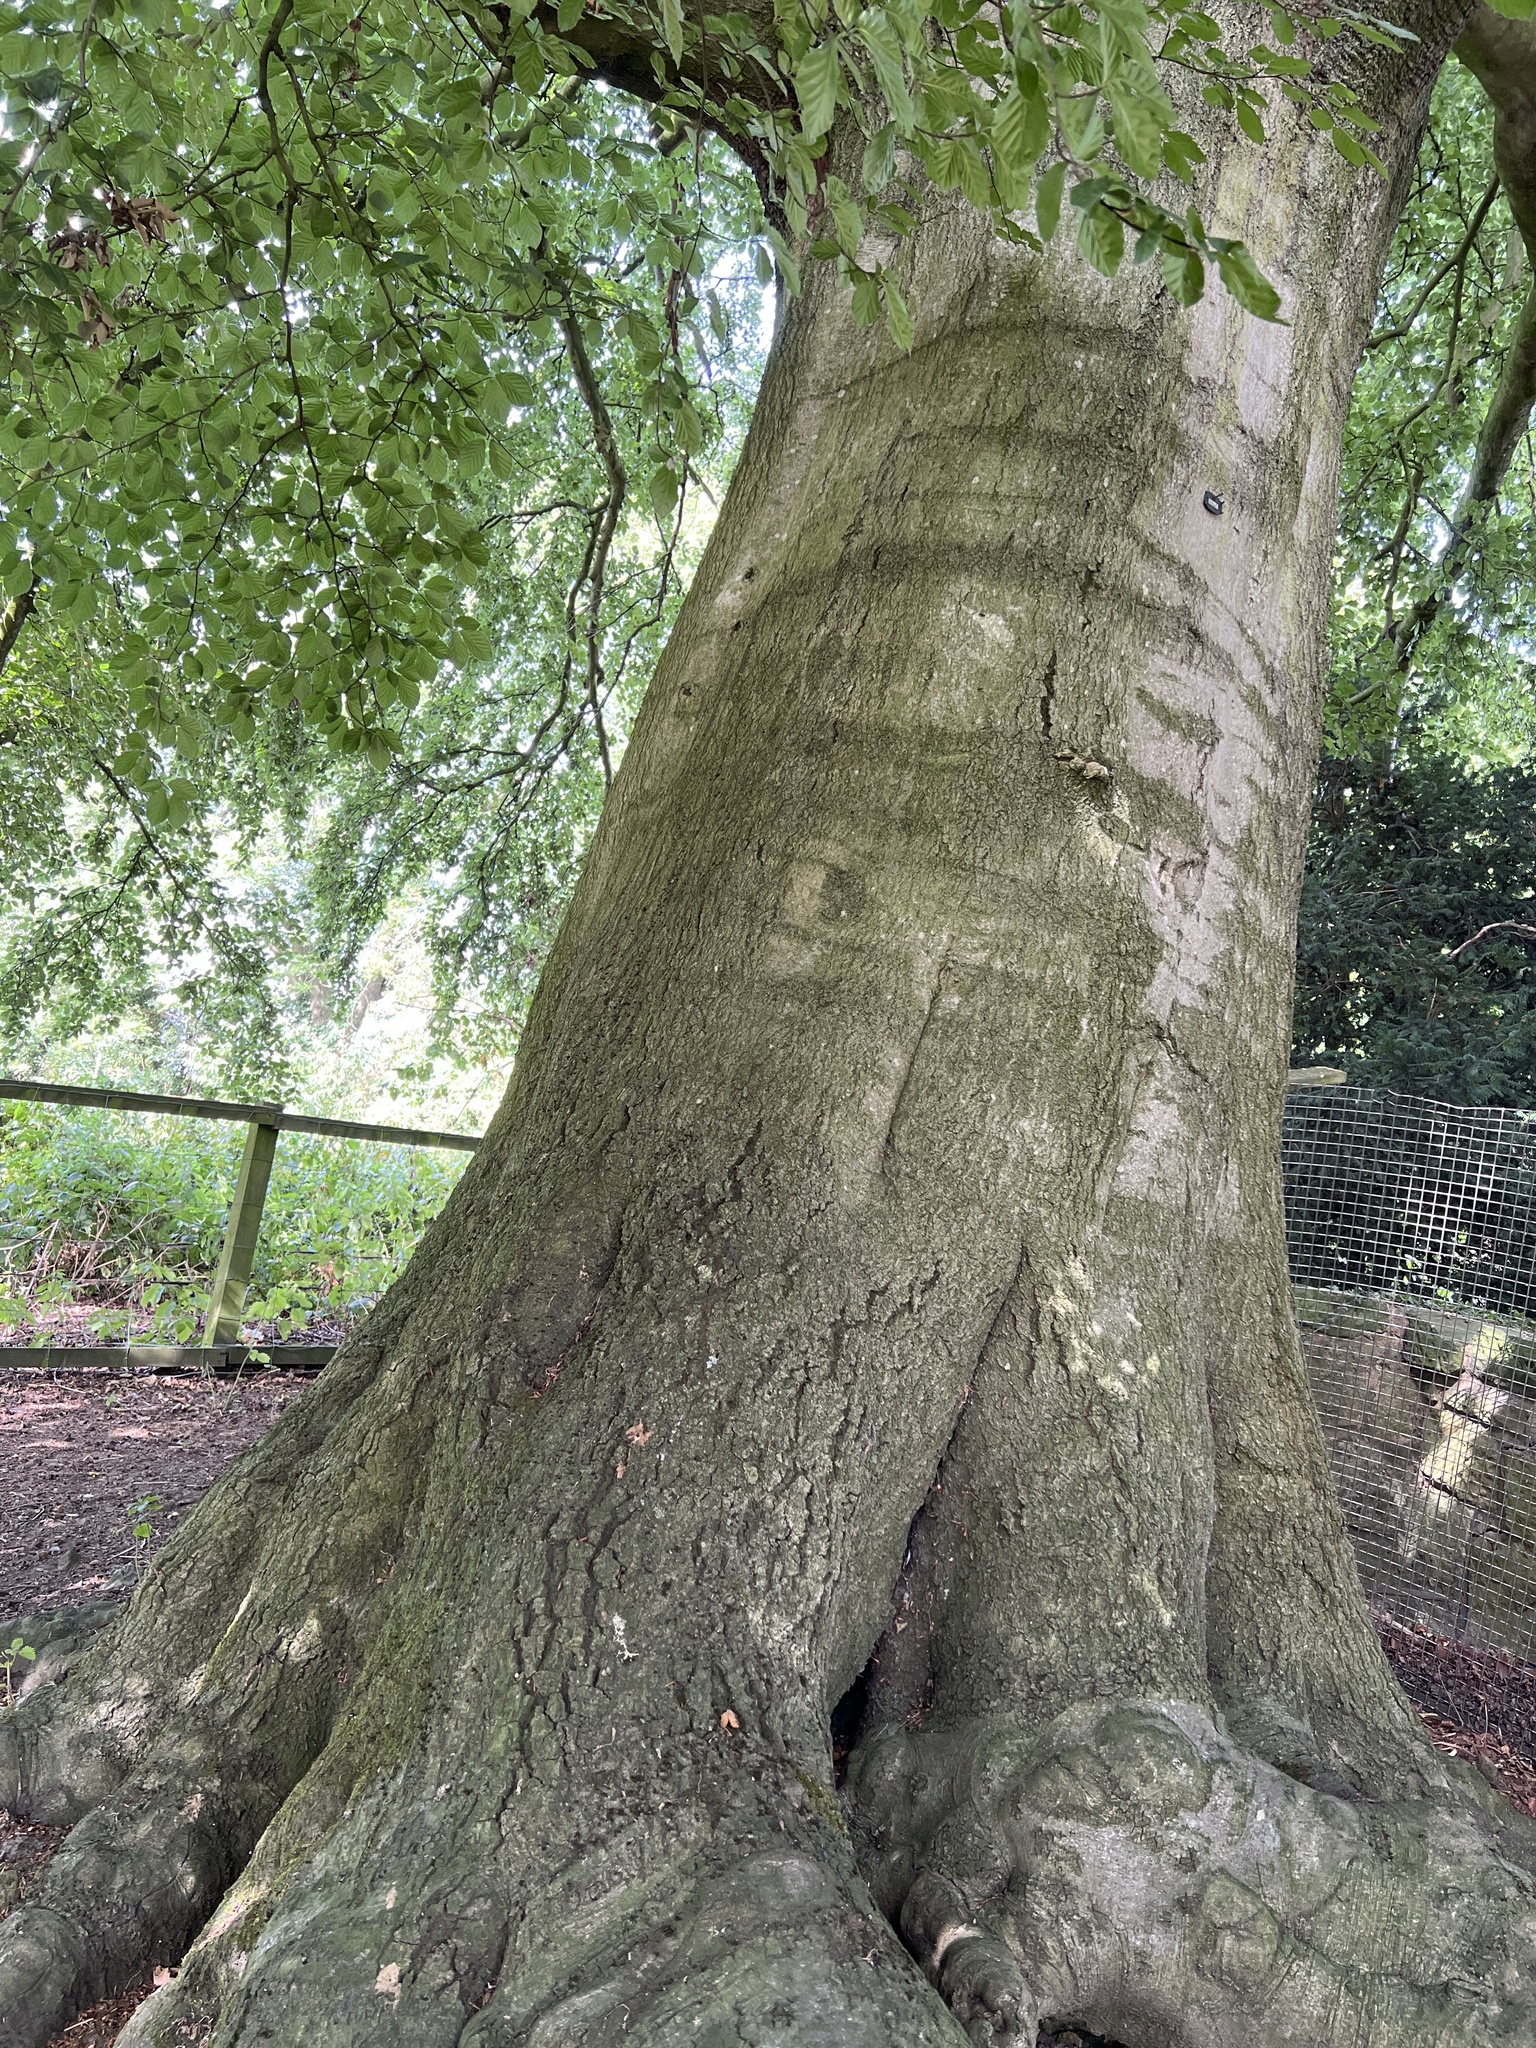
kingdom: Plantae
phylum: Tracheophyta
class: Magnoliopsida
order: Fagales
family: Fagaceae
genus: Fagus
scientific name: Fagus sylvatica
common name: Beech
